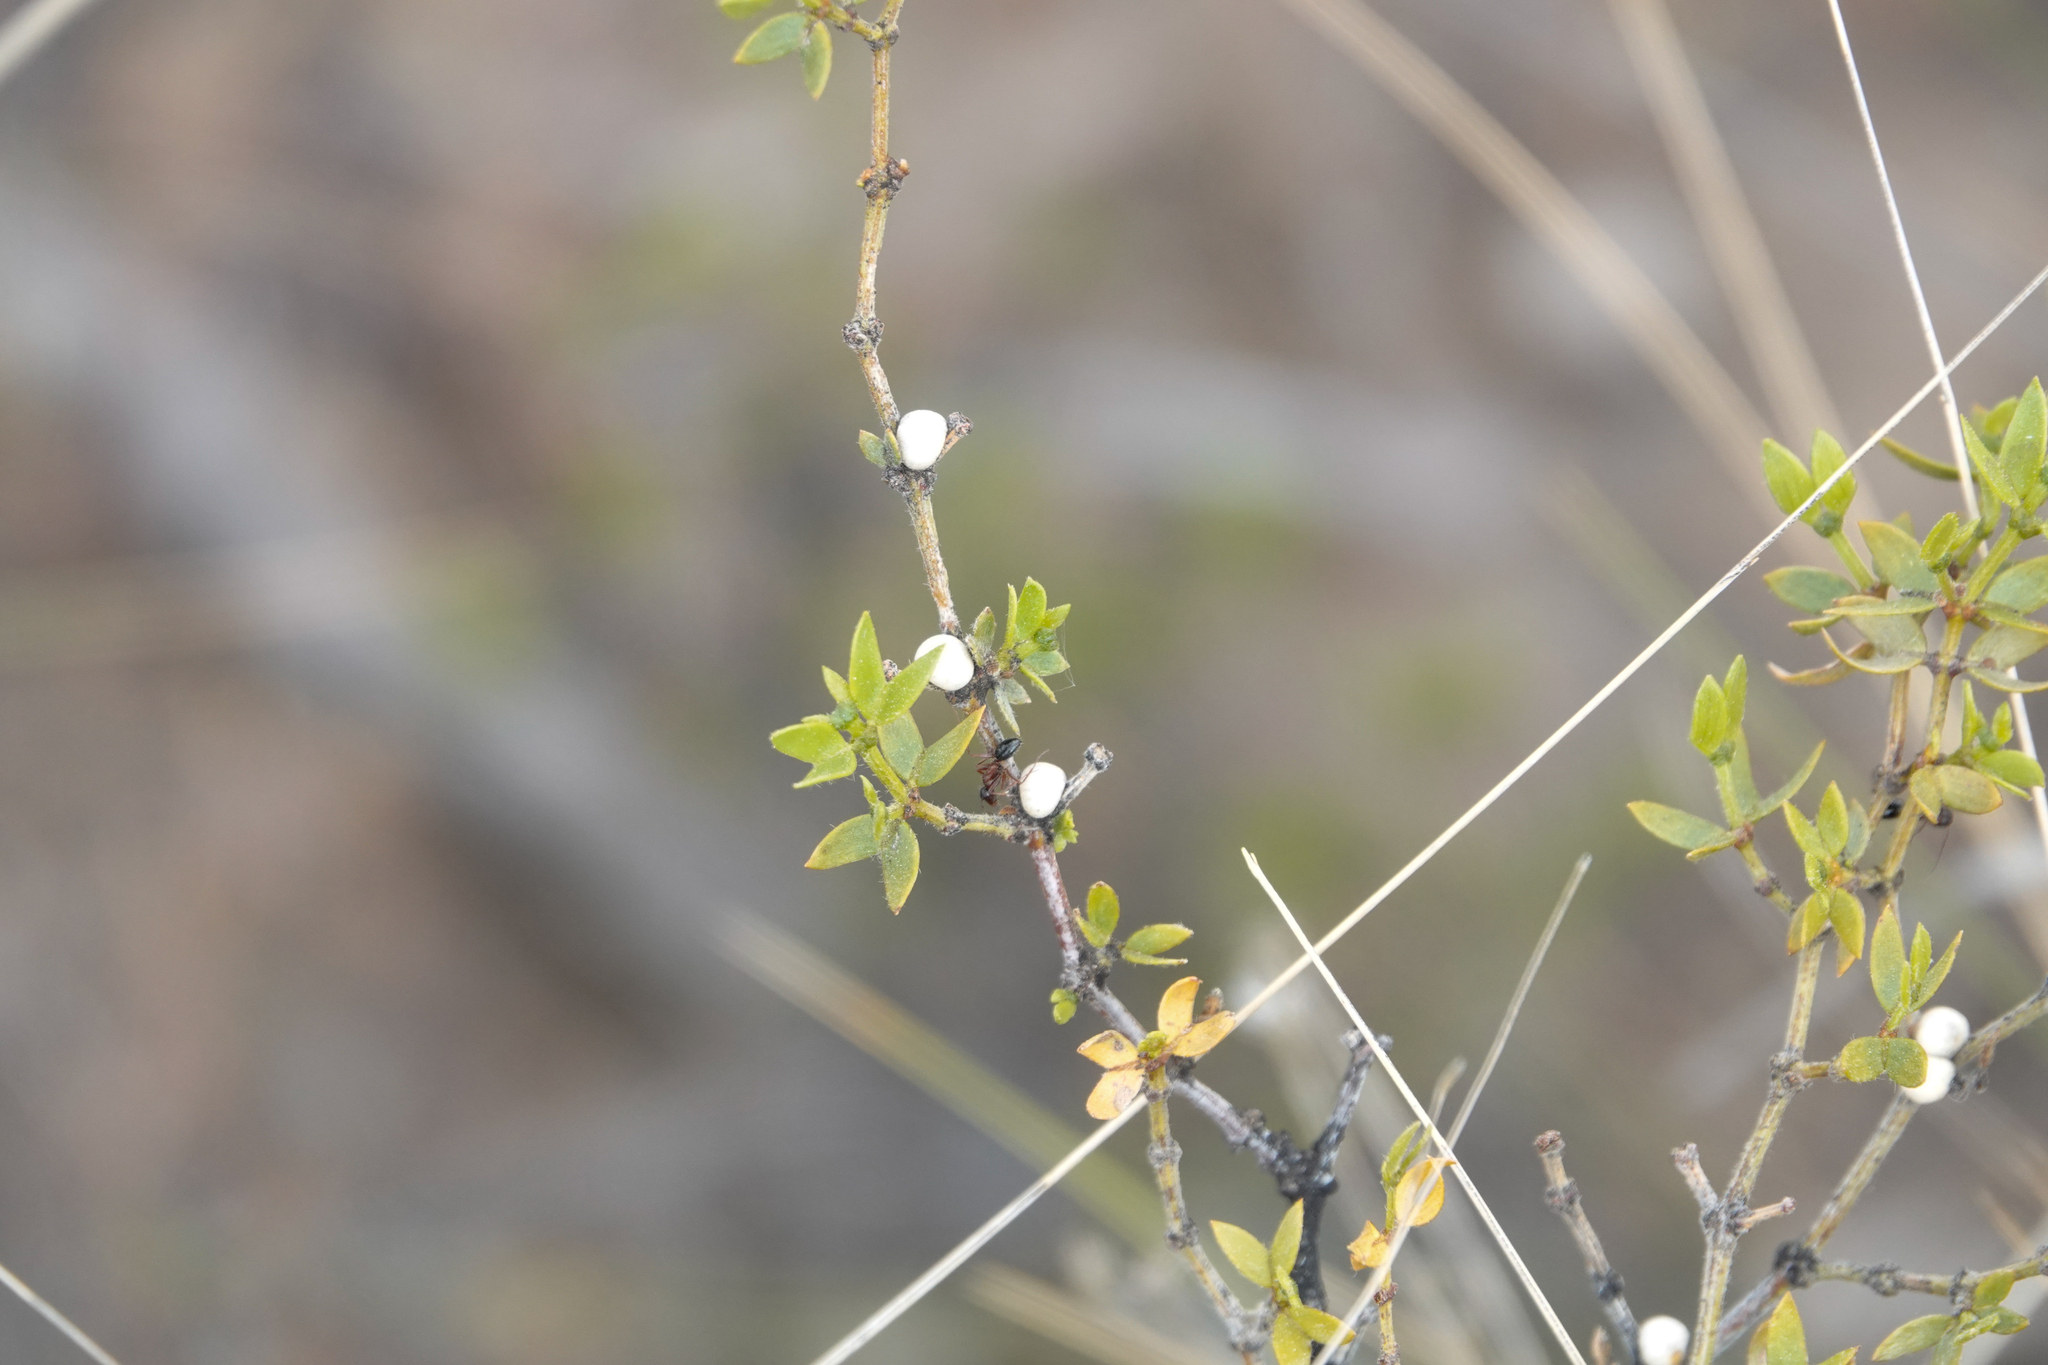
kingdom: Plantae
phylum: Tracheophyta
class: Magnoliopsida
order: Zygophyllales
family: Zygophyllaceae
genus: Larrea
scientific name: Larrea divaricata
